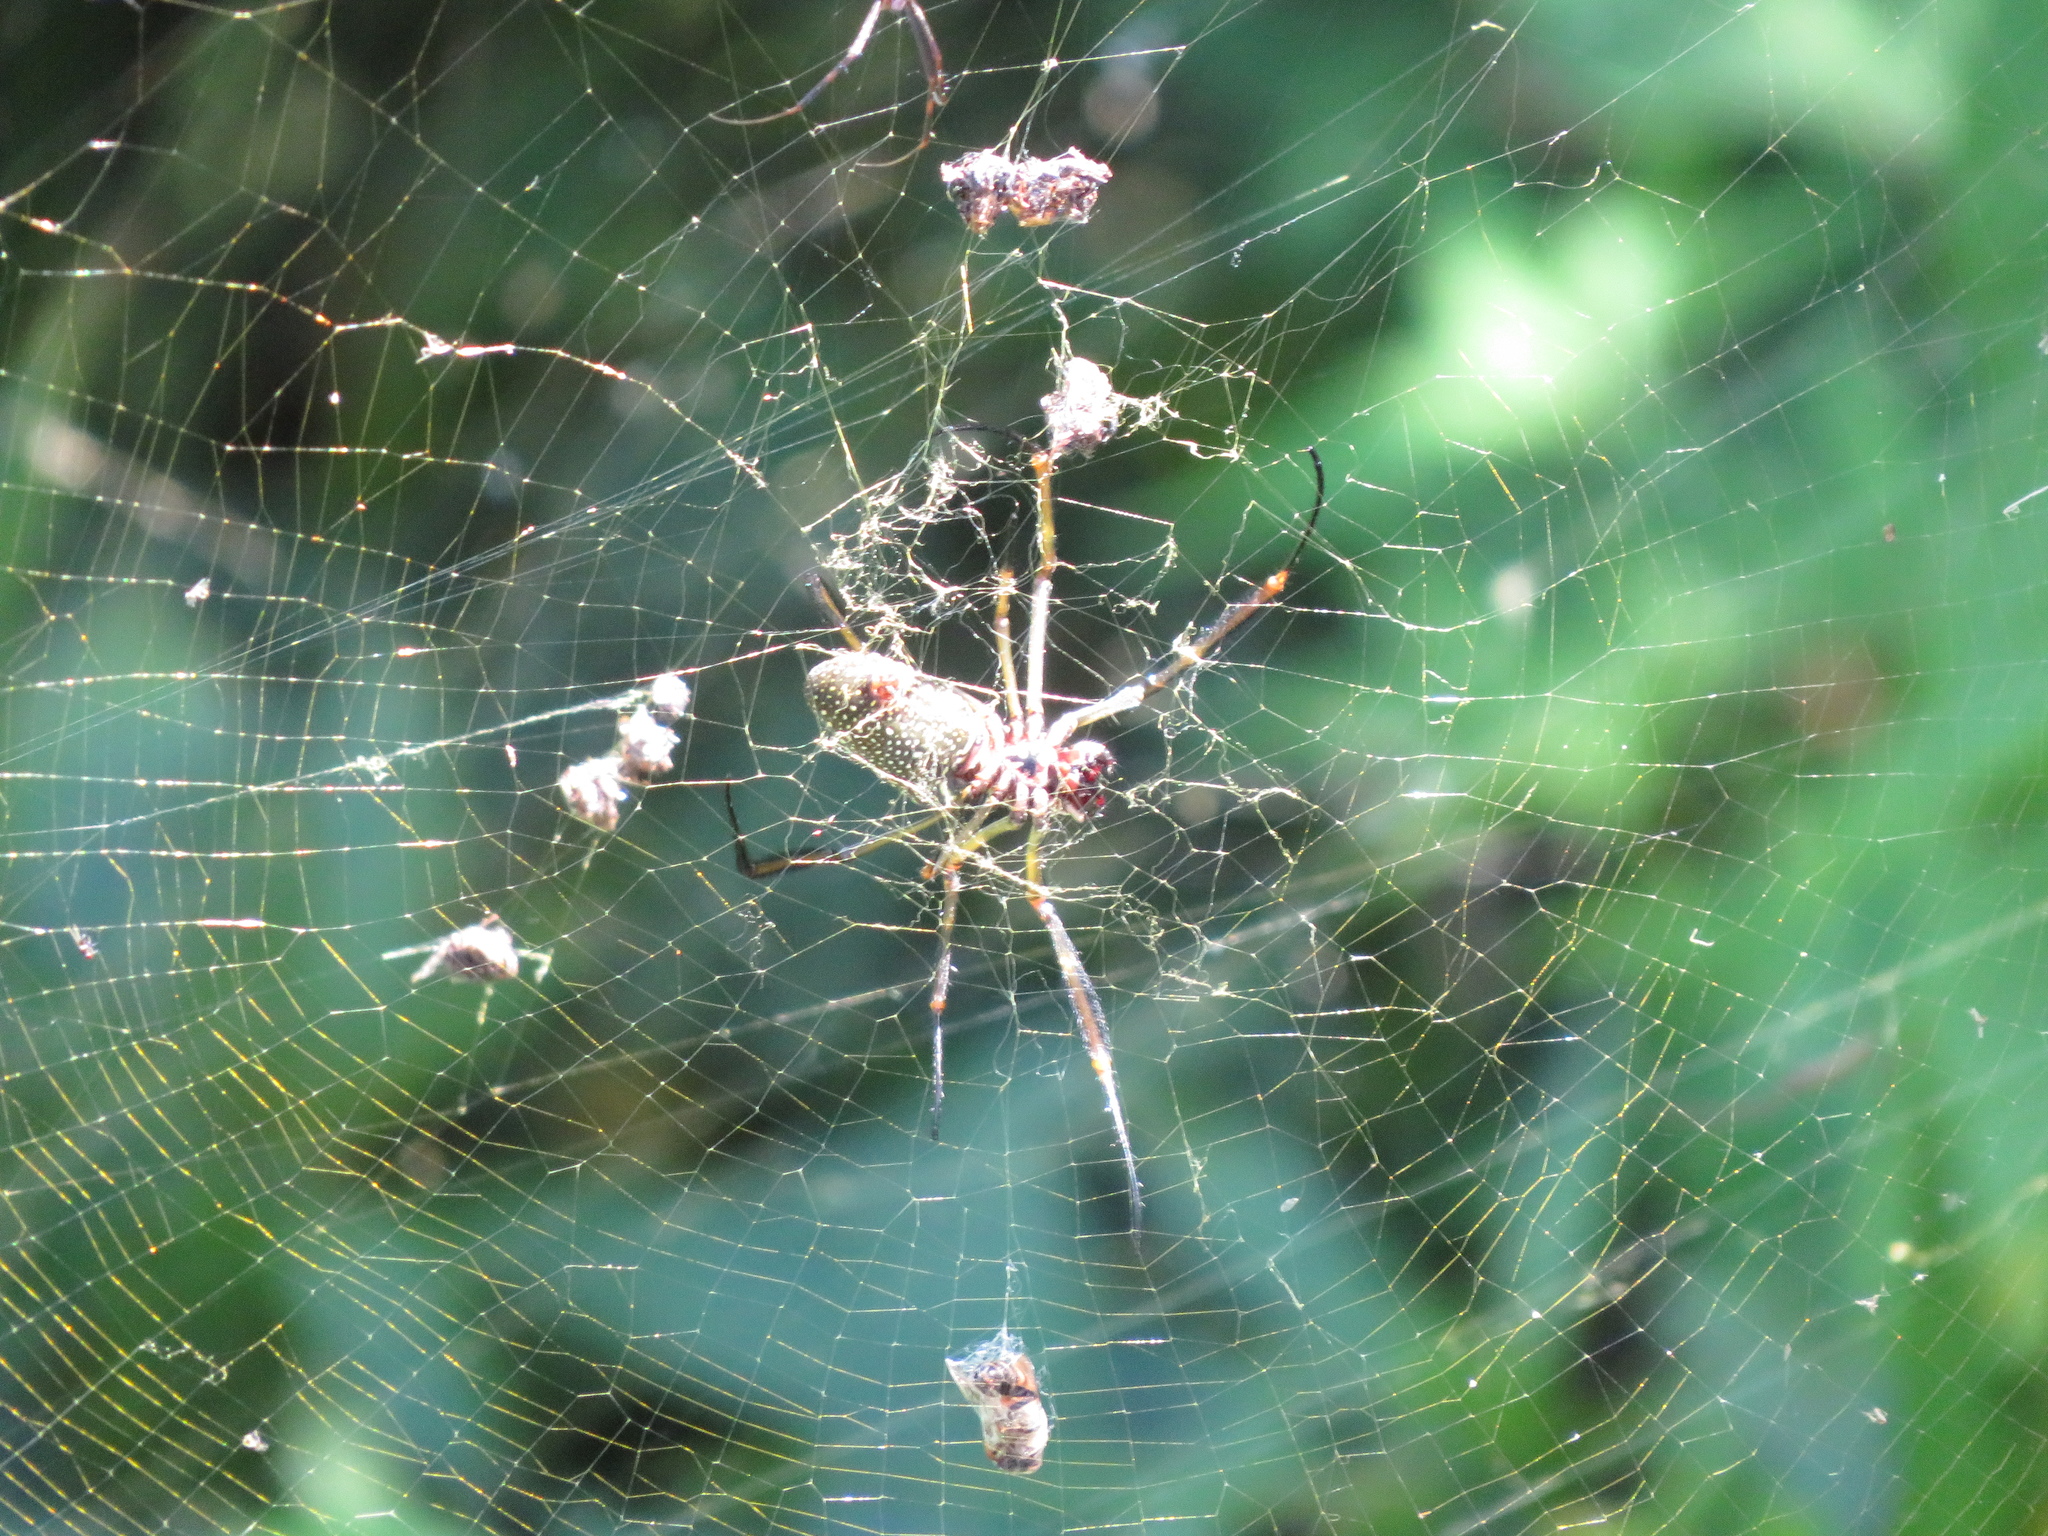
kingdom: Animalia
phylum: Arthropoda
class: Arachnida
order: Araneae
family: Araneidae
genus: Trichonephila
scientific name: Trichonephila clavipes
